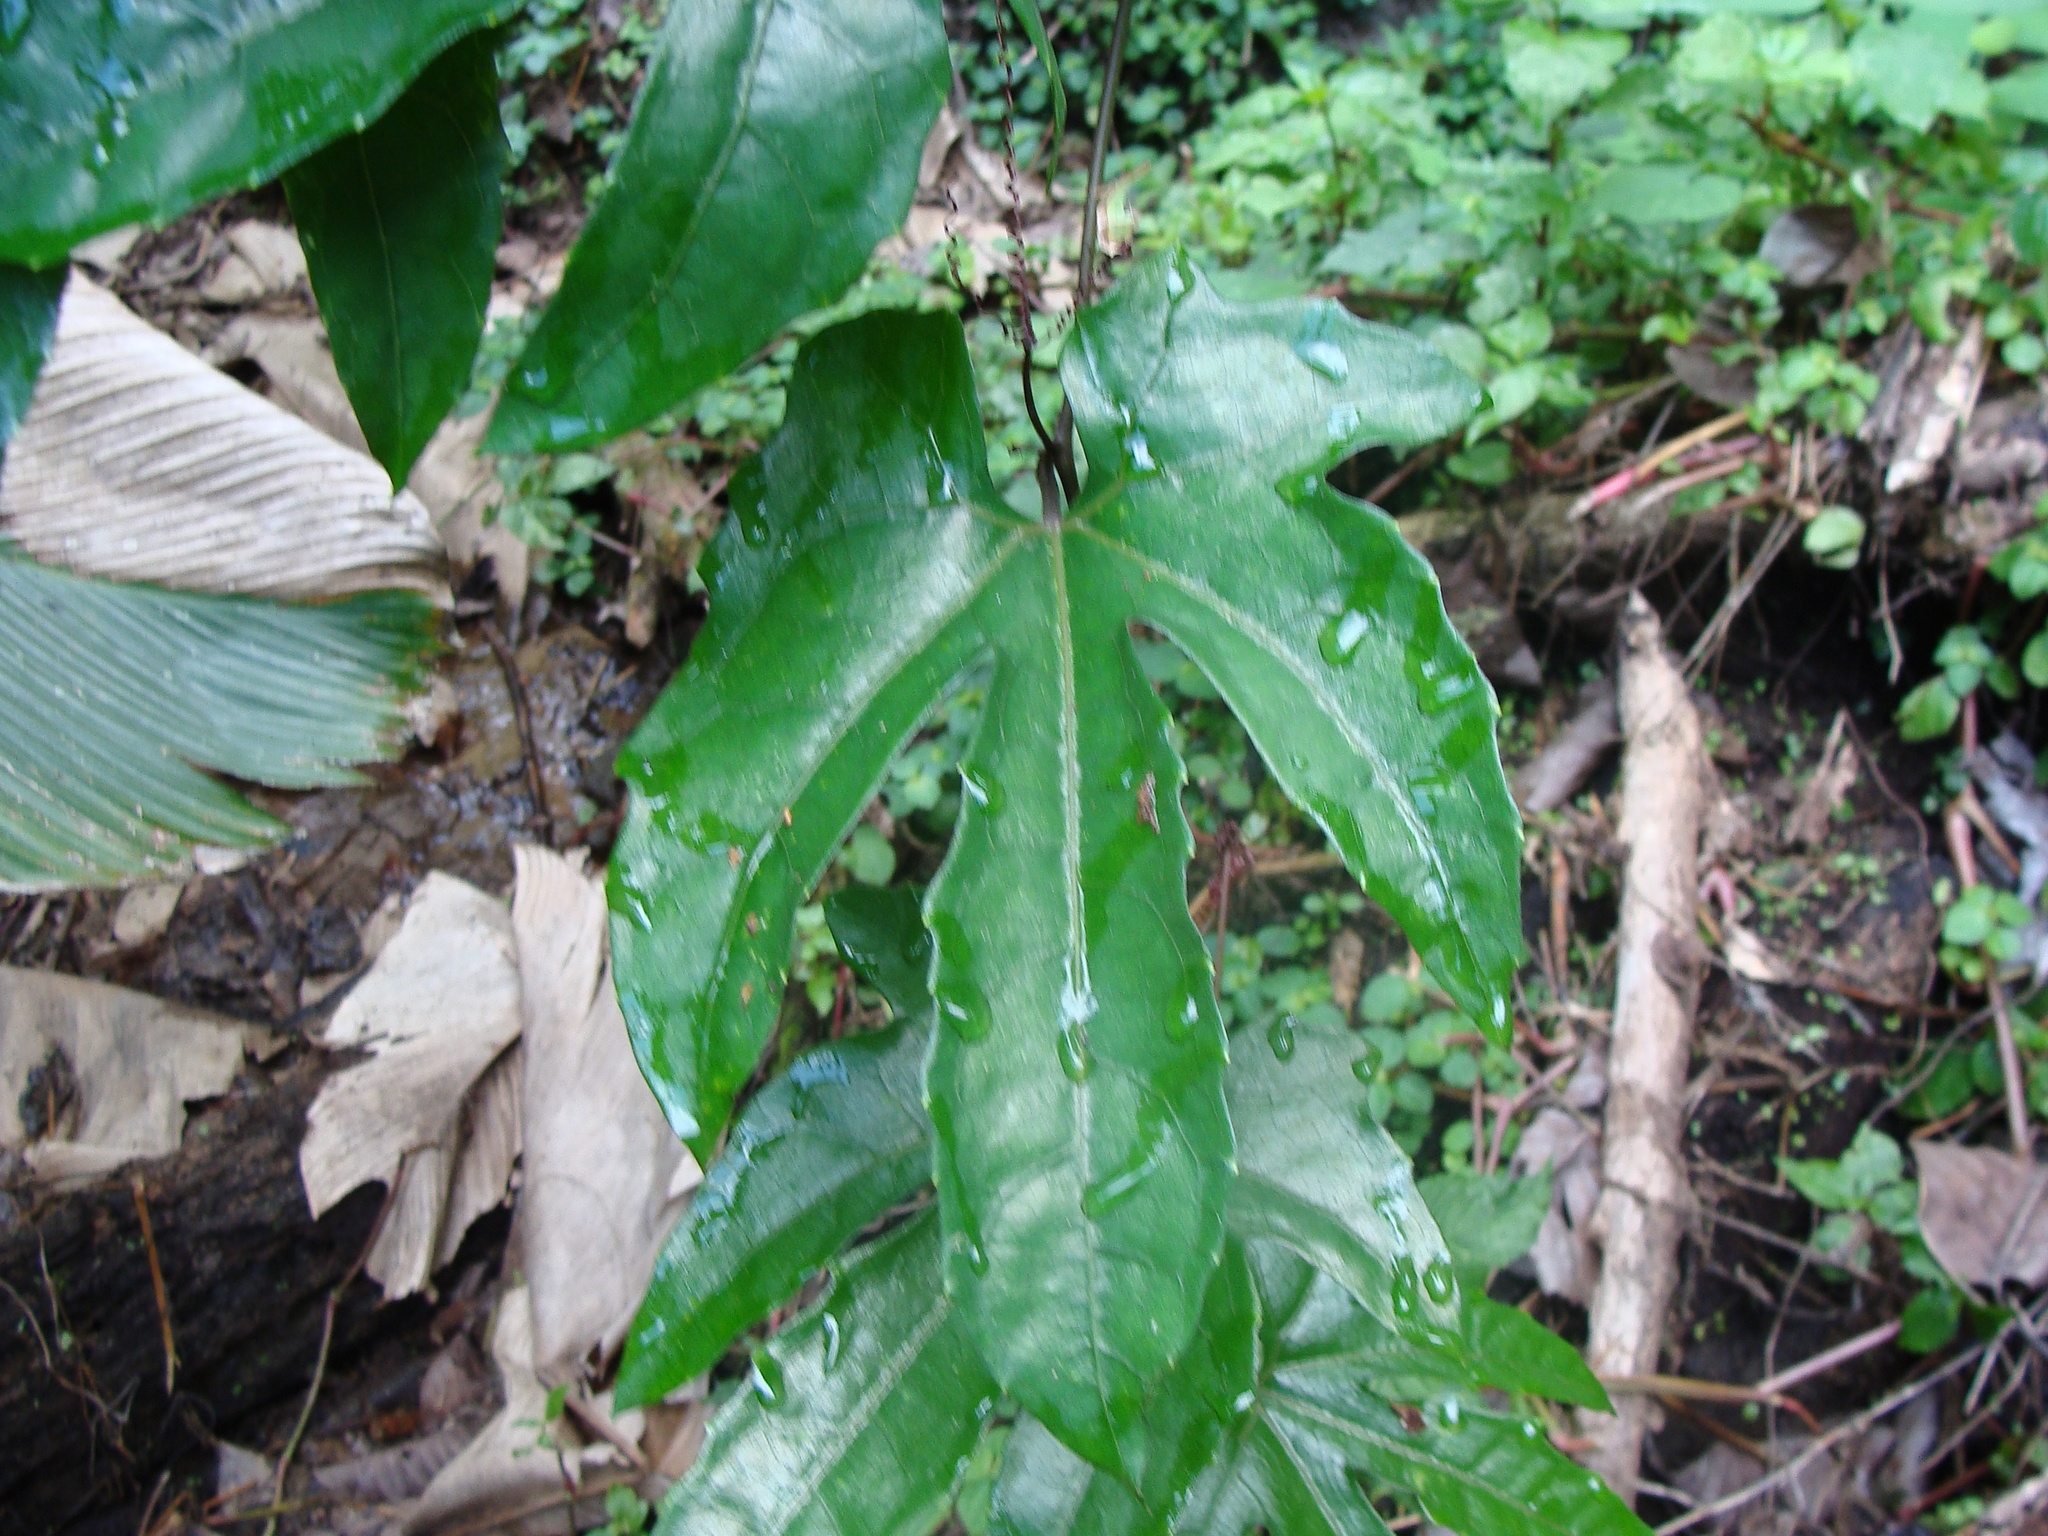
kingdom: Plantae
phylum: Tracheophyta
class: Magnoliopsida
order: Cucurbitales
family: Cucurbitaceae
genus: Cayaponia
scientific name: Cayaponia longiloba
